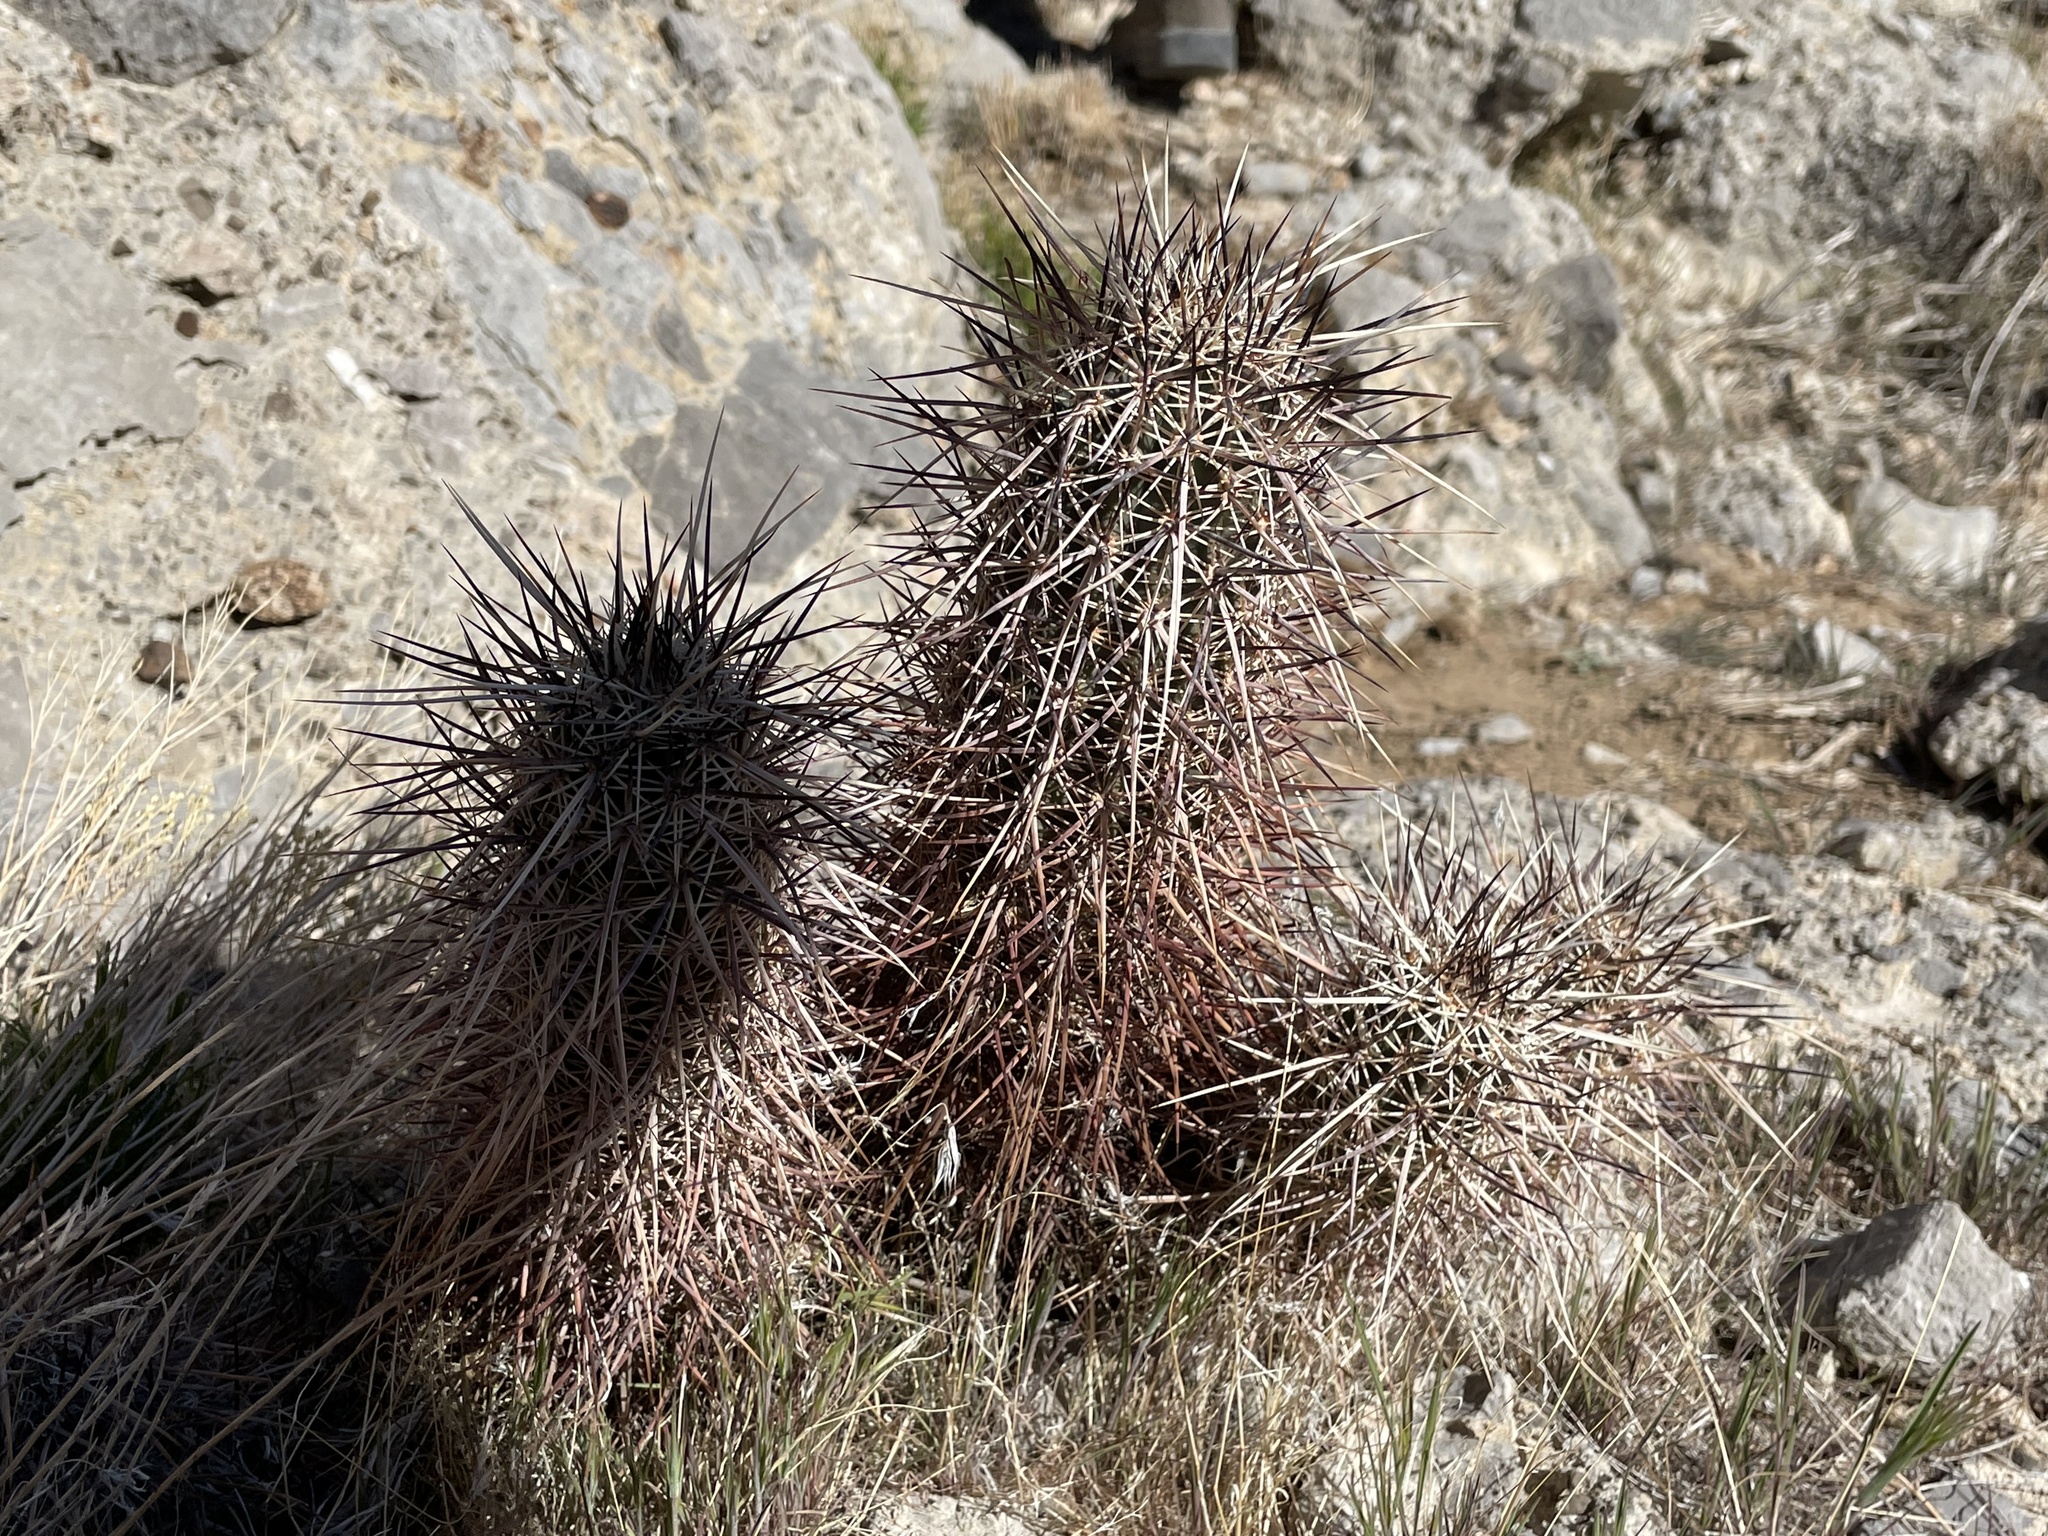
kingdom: Plantae
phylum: Tracheophyta
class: Magnoliopsida
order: Caryophyllales
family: Cactaceae
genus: Echinocereus
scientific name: Echinocereus engelmannii
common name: Engelmann's hedgehog cactus
